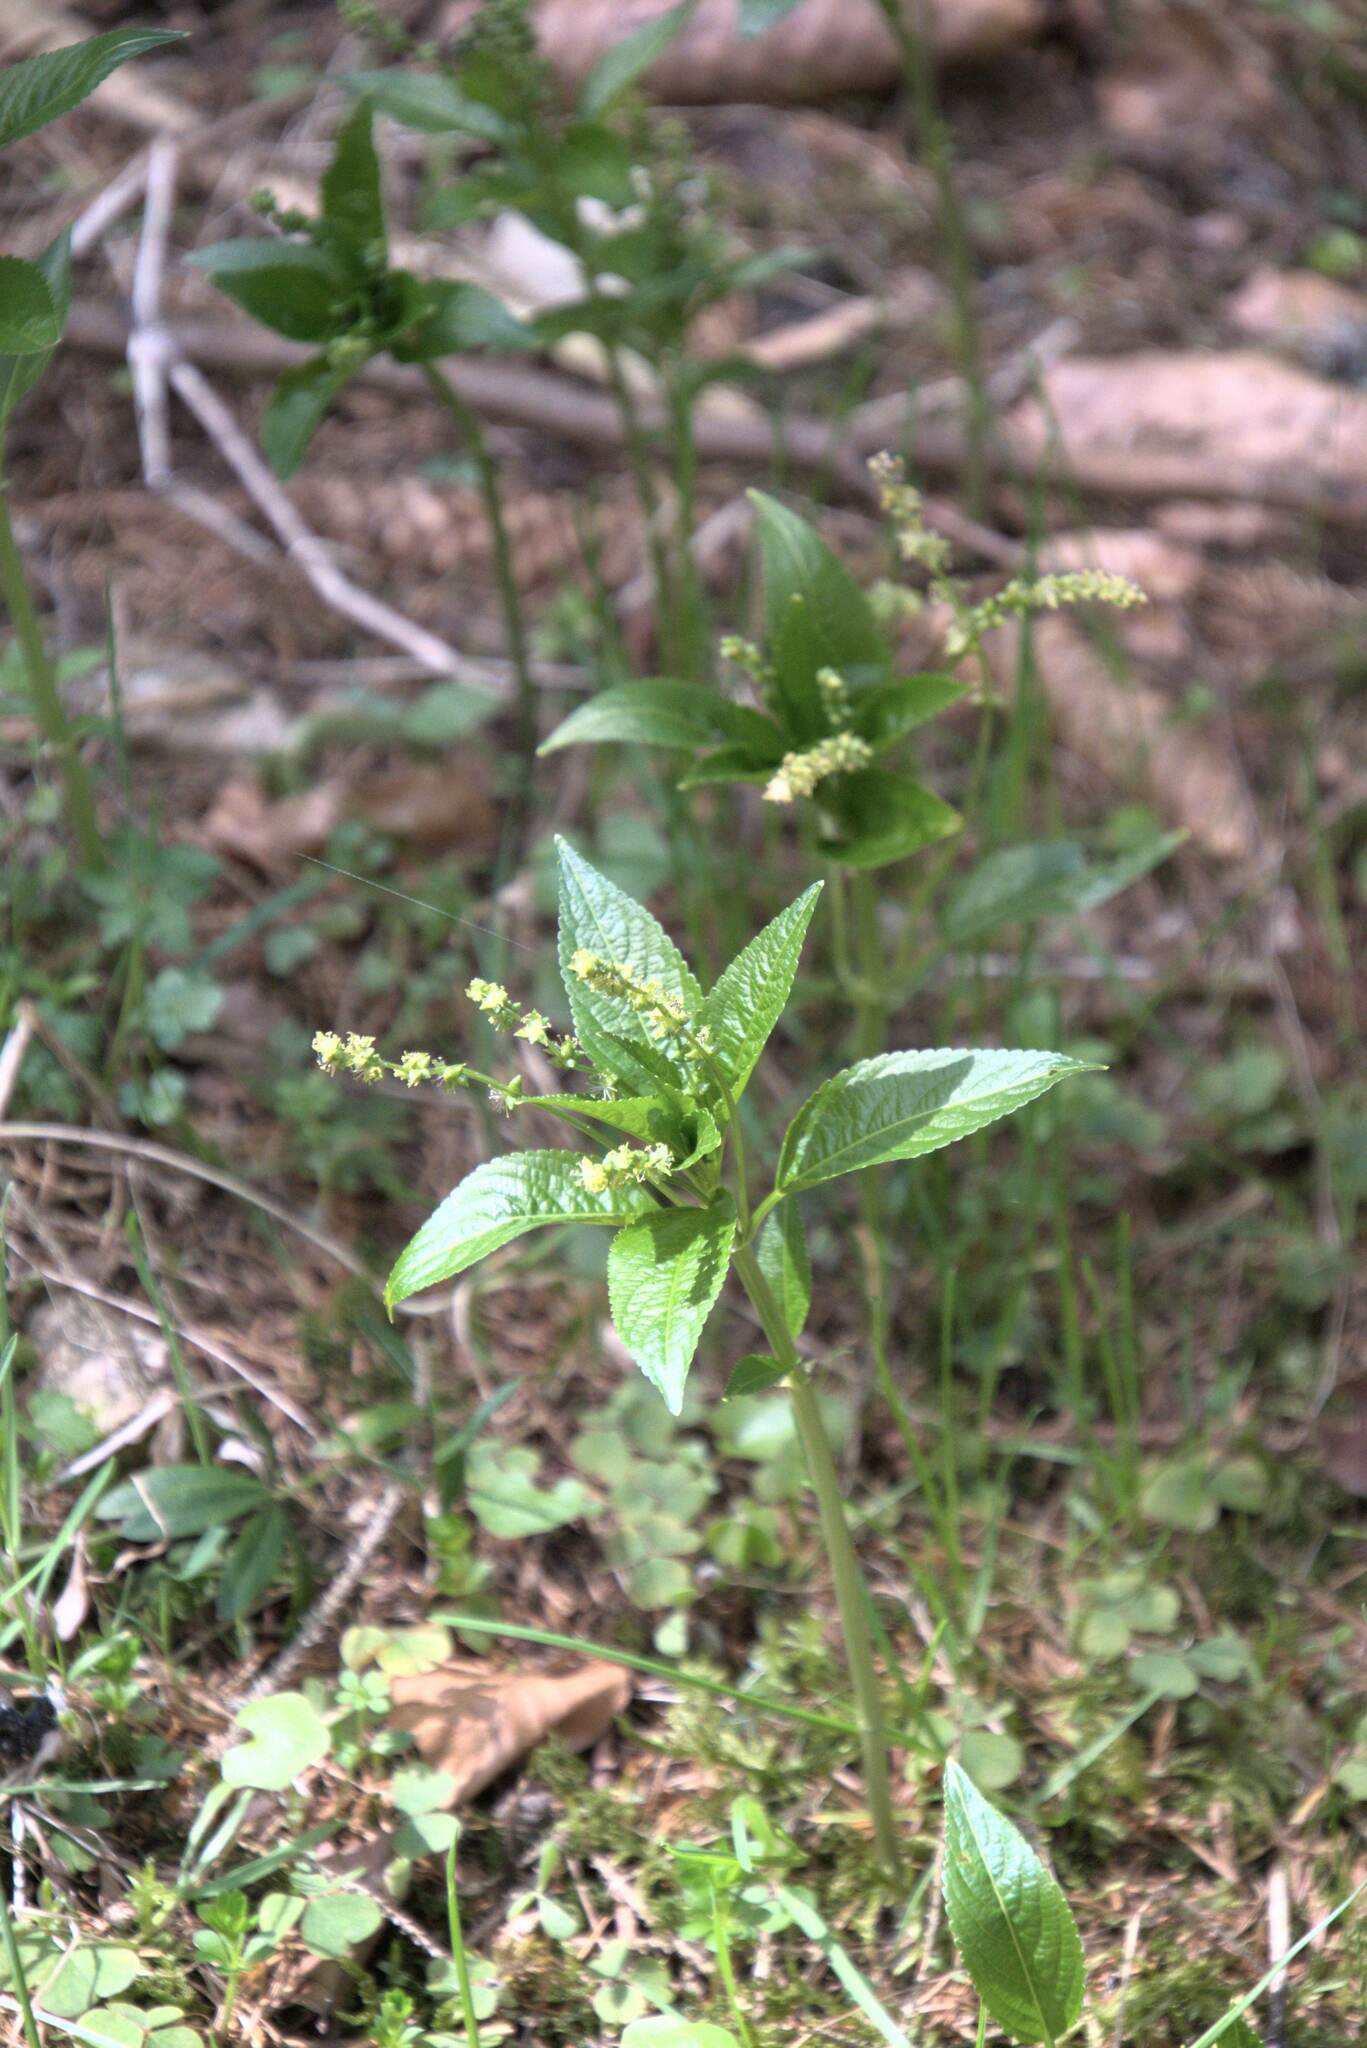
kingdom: Plantae
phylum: Tracheophyta
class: Magnoliopsida
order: Malpighiales
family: Euphorbiaceae
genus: Mercurialis
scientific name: Mercurialis perennis
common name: Dog mercury
